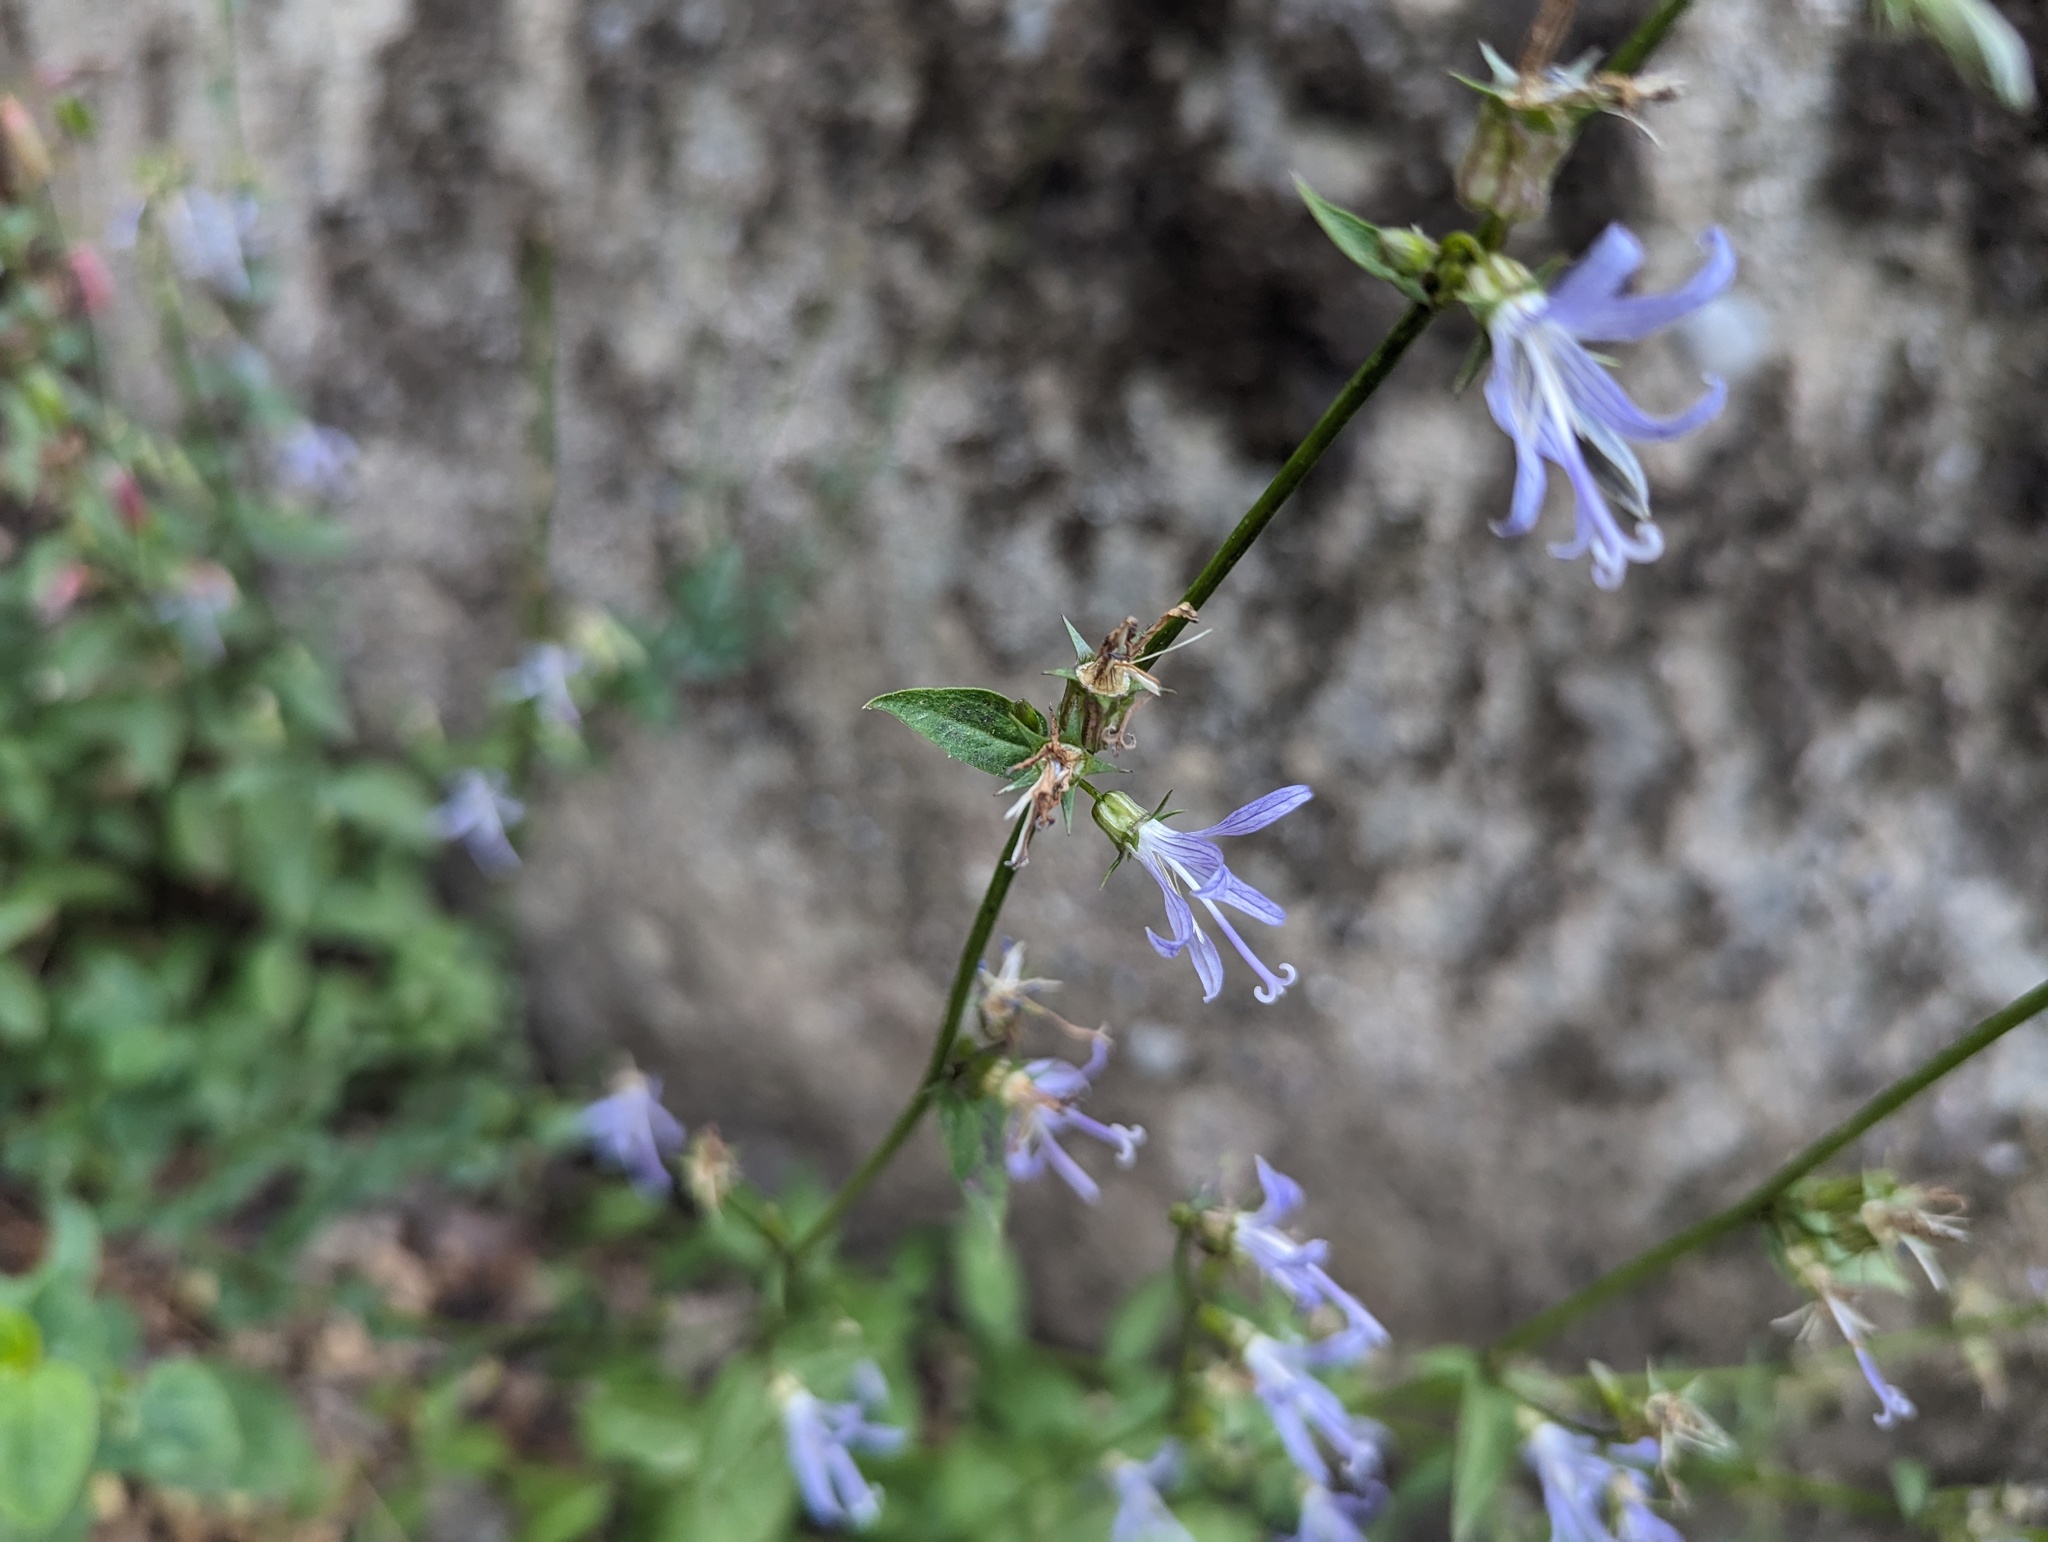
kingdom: Plantae
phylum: Tracheophyta
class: Magnoliopsida
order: Asterales
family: Campanulaceae
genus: Smithiastrum
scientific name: Smithiastrum prenanthoides
